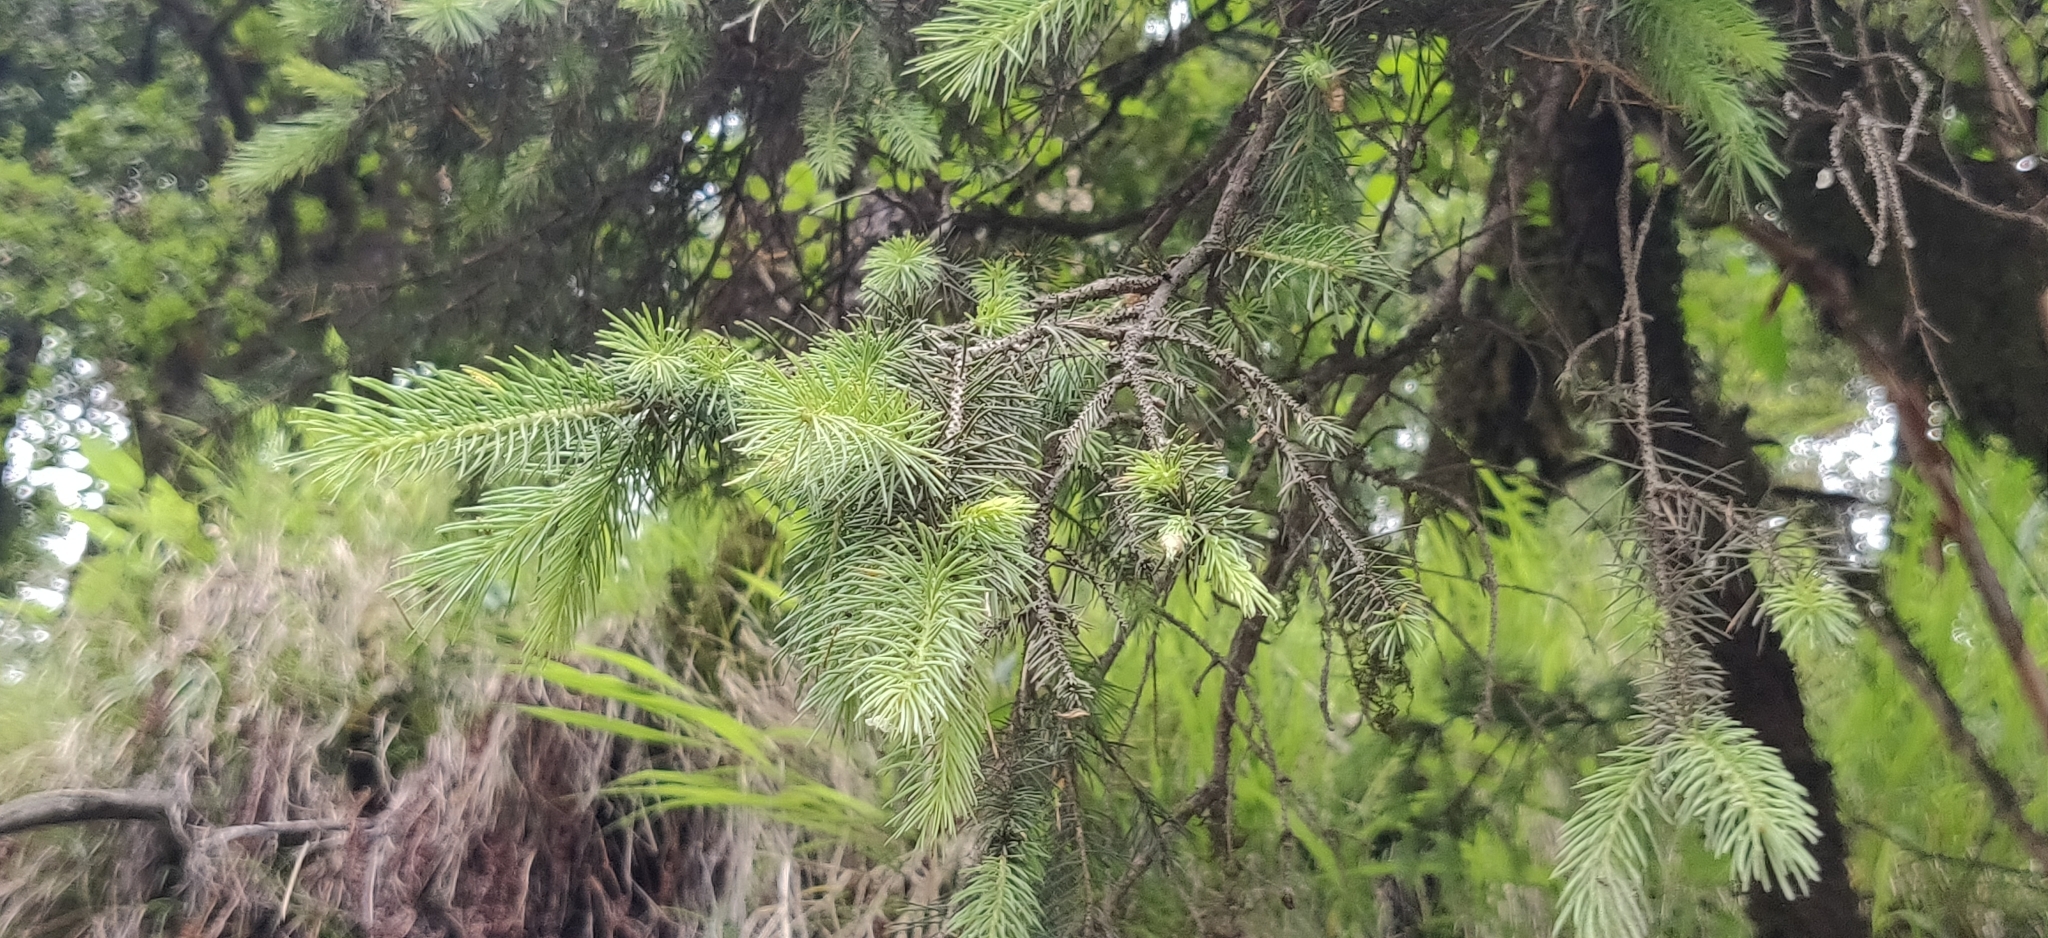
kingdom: Plantae
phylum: Tracheophyta
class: Pinopsida
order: Pinales
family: Pinaceae
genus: Picea
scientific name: Picea smithiana
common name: Morinda spruce
